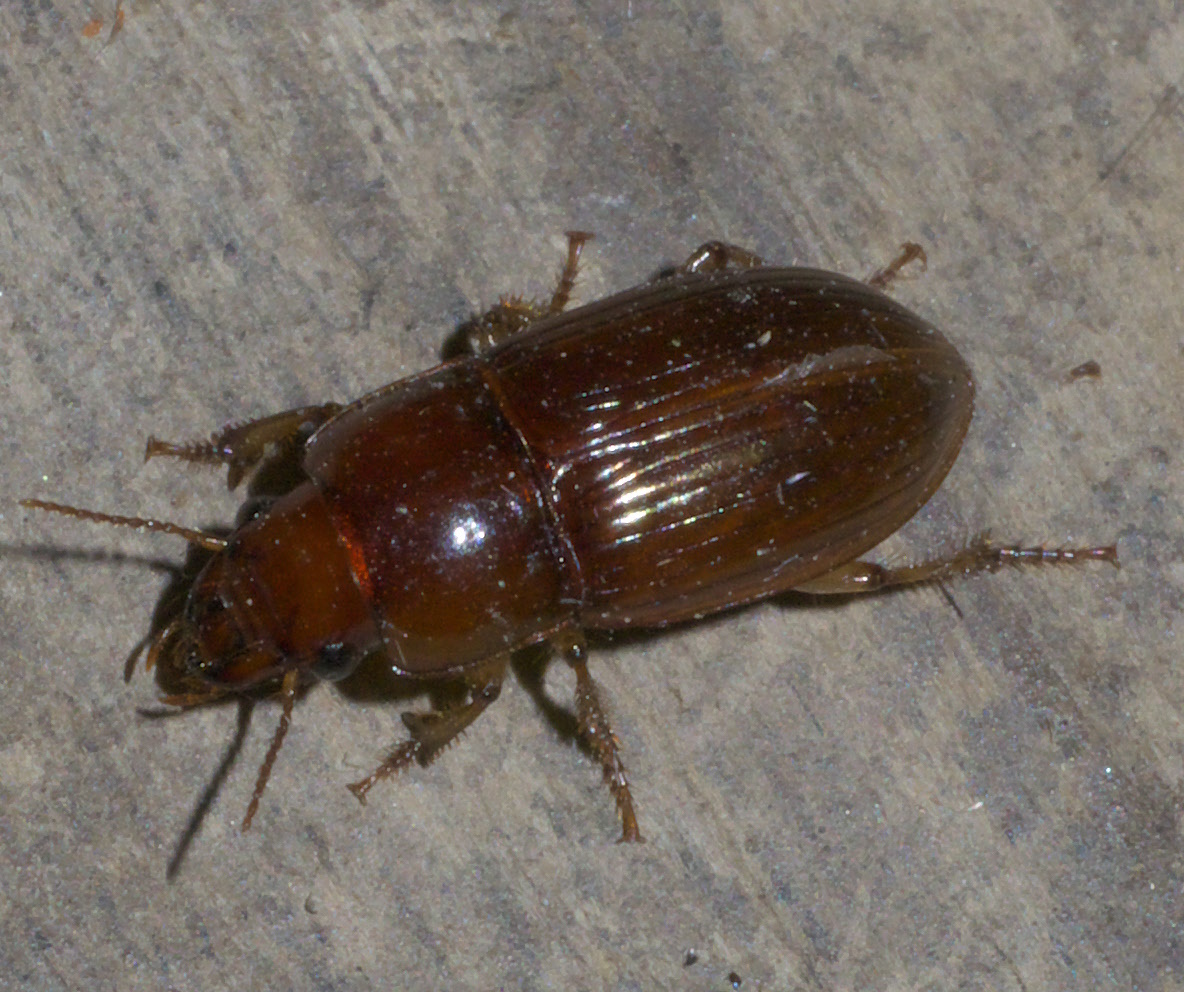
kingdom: Animalia
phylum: Arthropoda
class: Insecta
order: Coleoptera
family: Carabidae
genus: Harpalus
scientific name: Harpalus gravis
